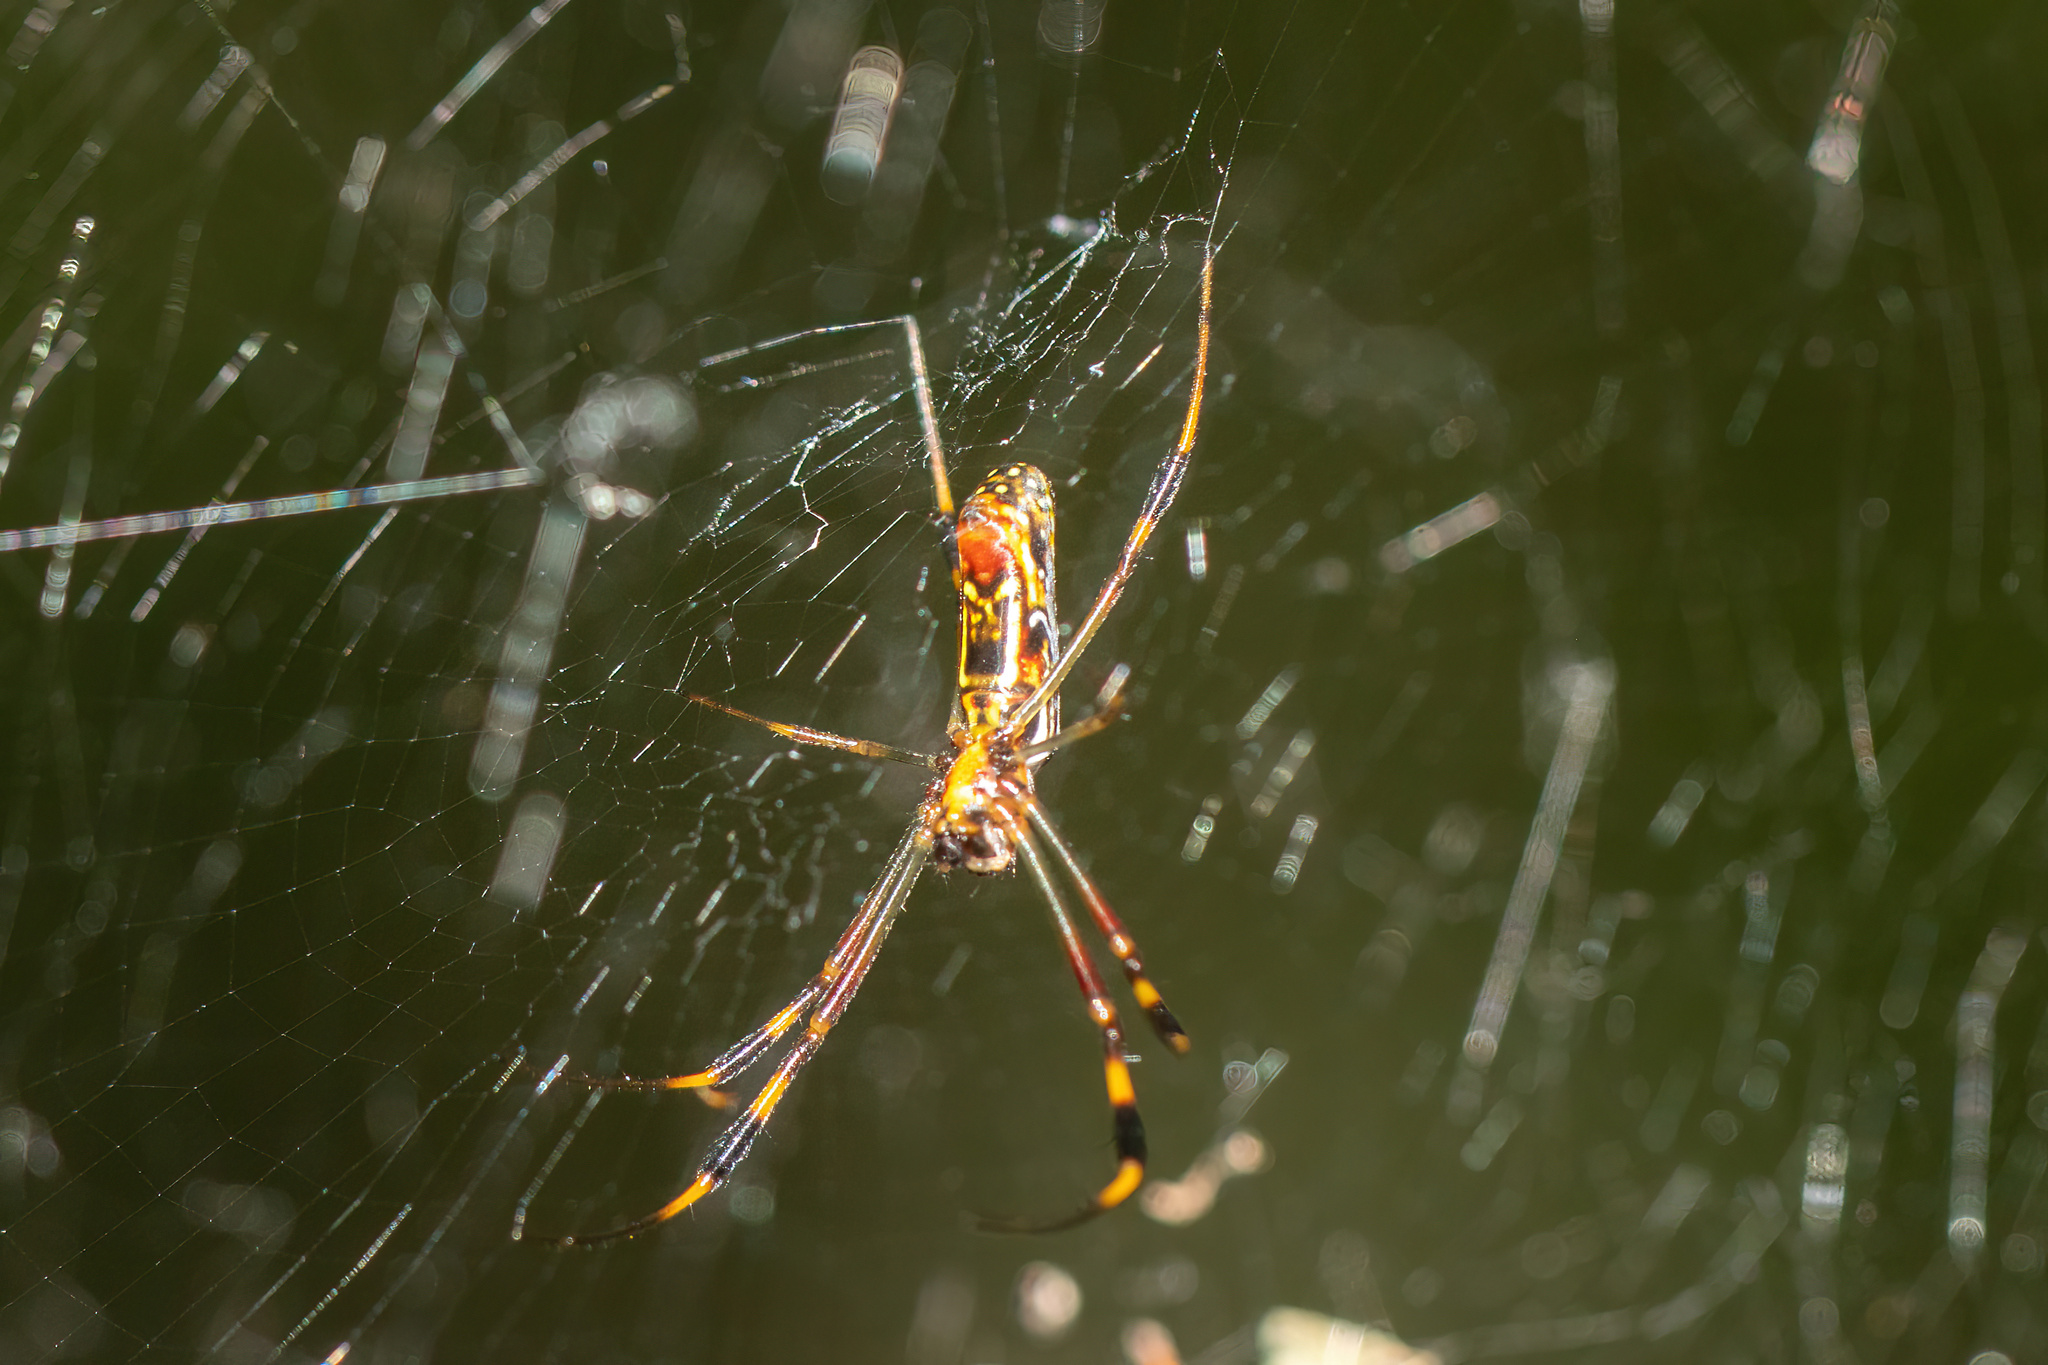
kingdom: Animalia
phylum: Arthropoda
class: Arachnida
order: Araneae
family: Araneidae
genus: Trichonephila
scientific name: Trichonephila clavipes
